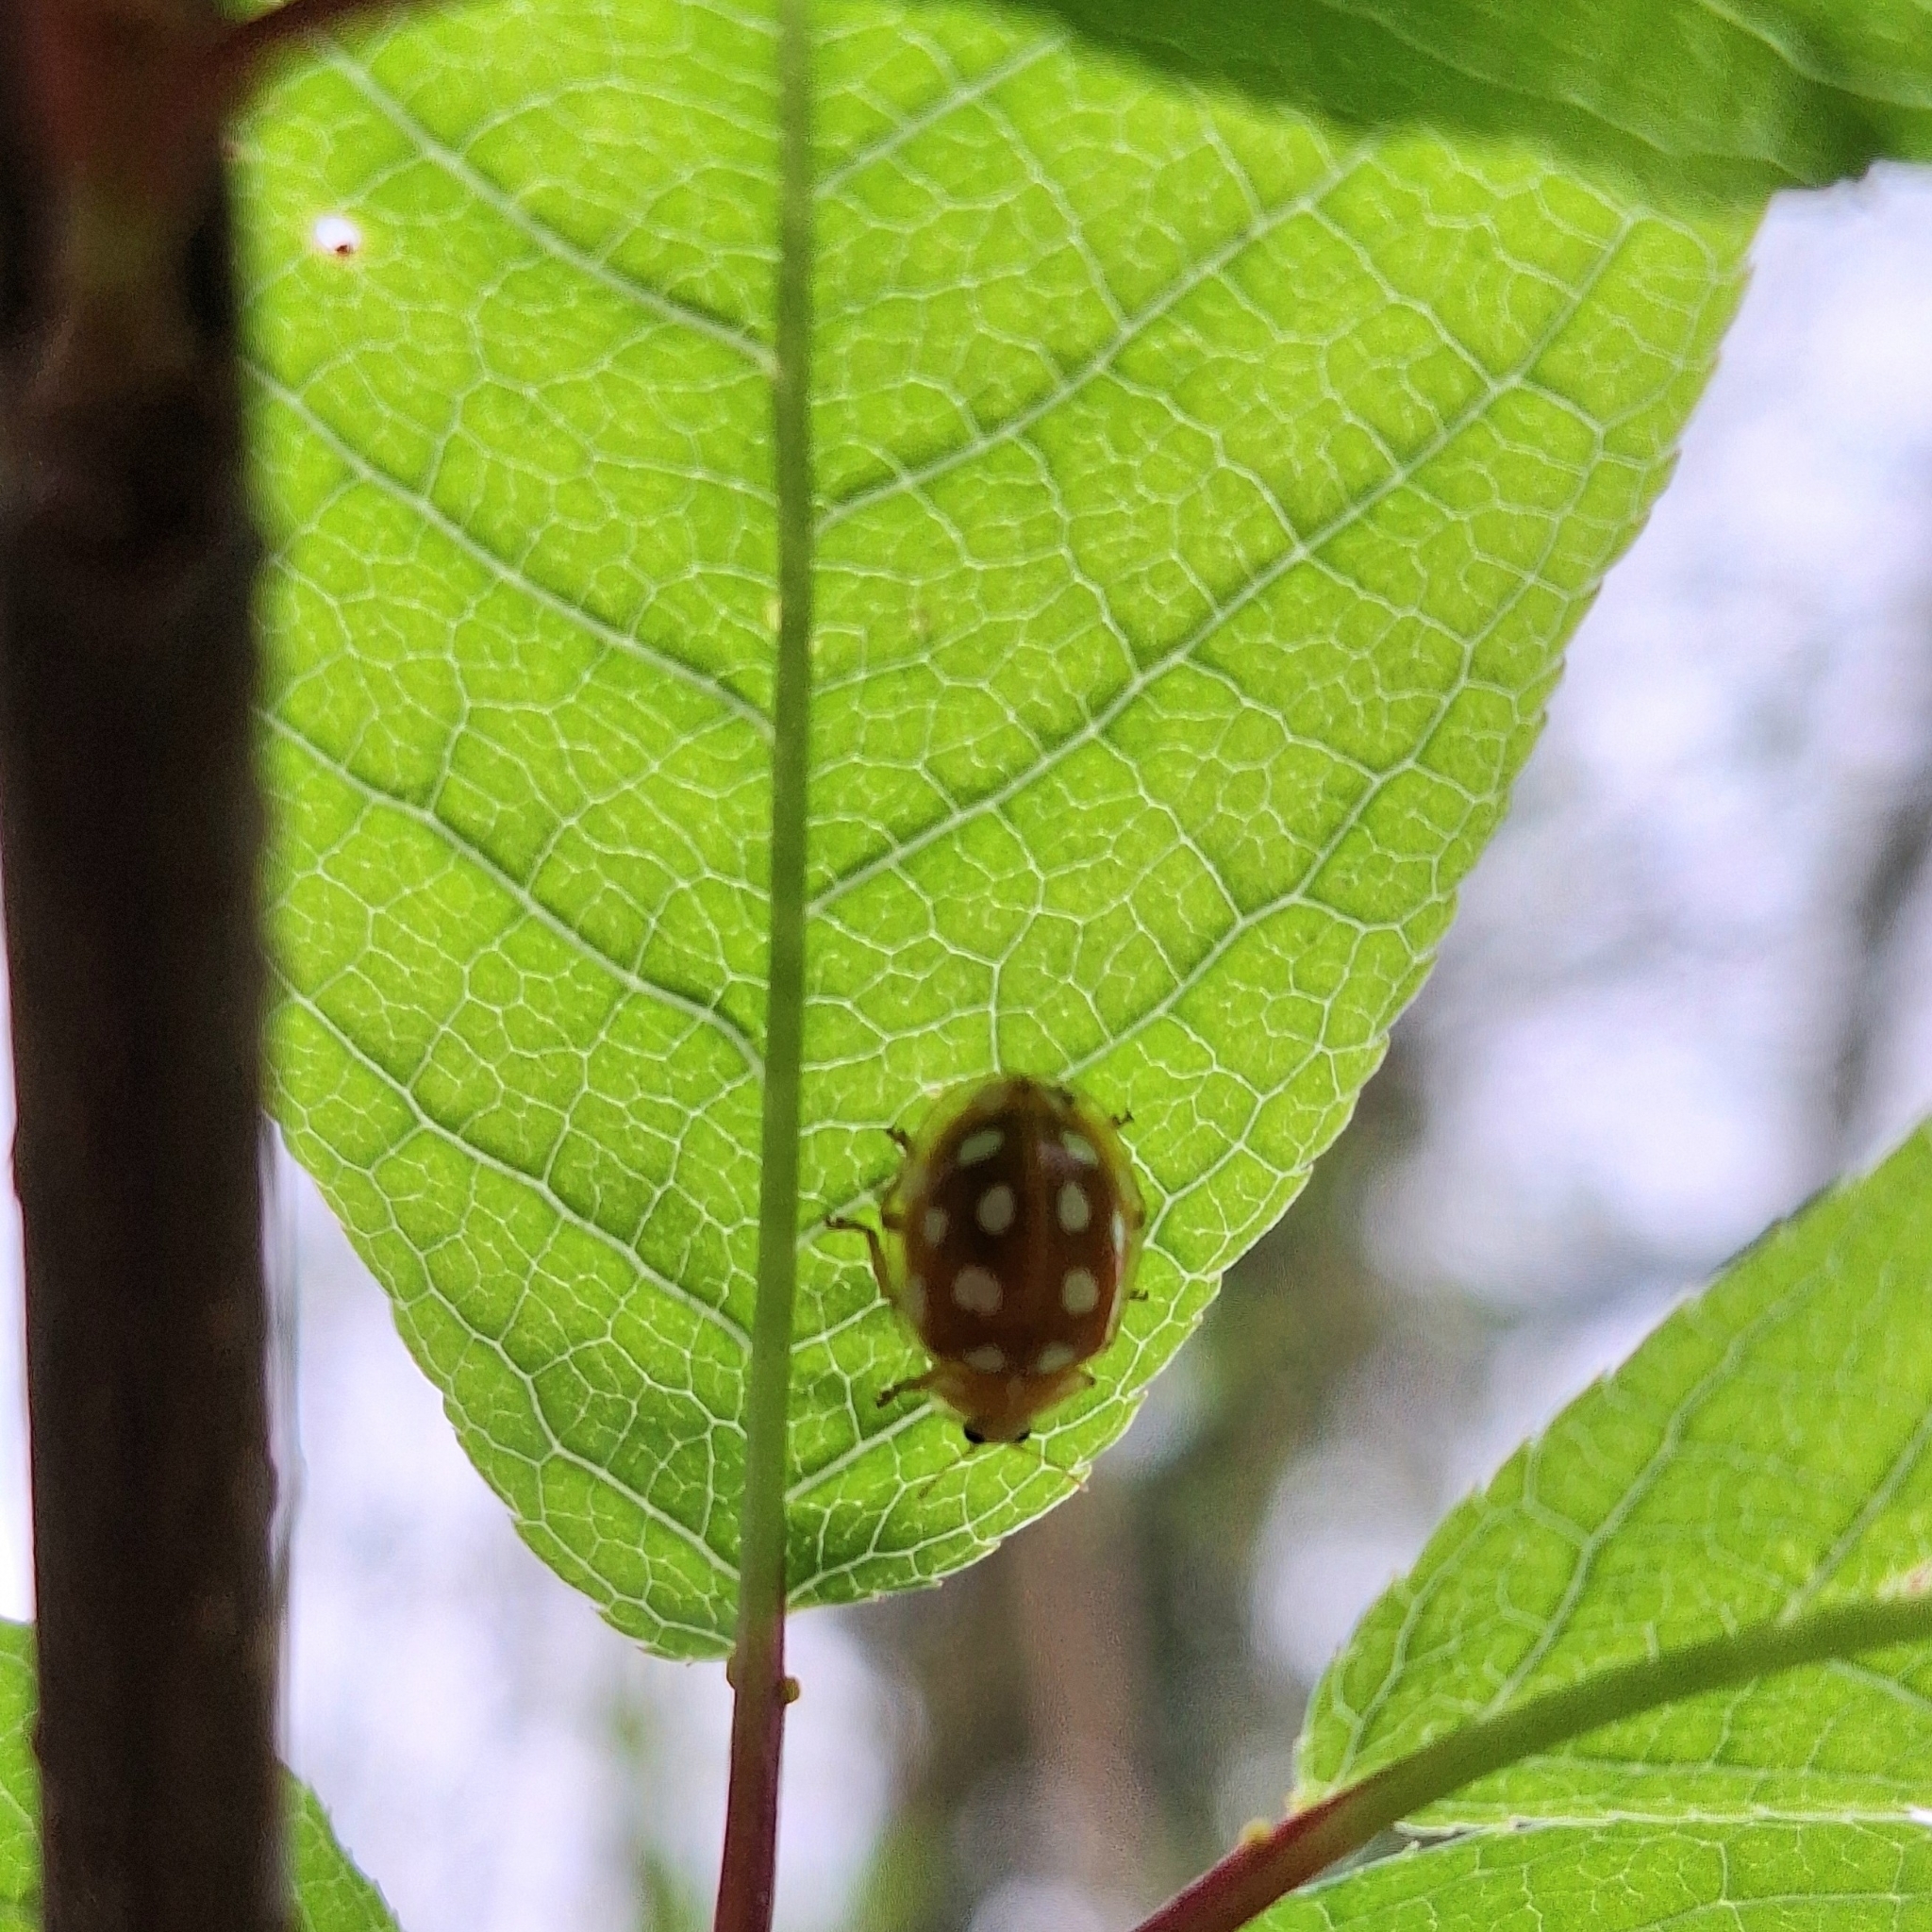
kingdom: Animalia
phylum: Arthropoda
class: Insecta
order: Coleoptera
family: Coccinellidae
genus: Halyzia
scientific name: Halyzia sedecimguttata
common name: Orange ladybird
